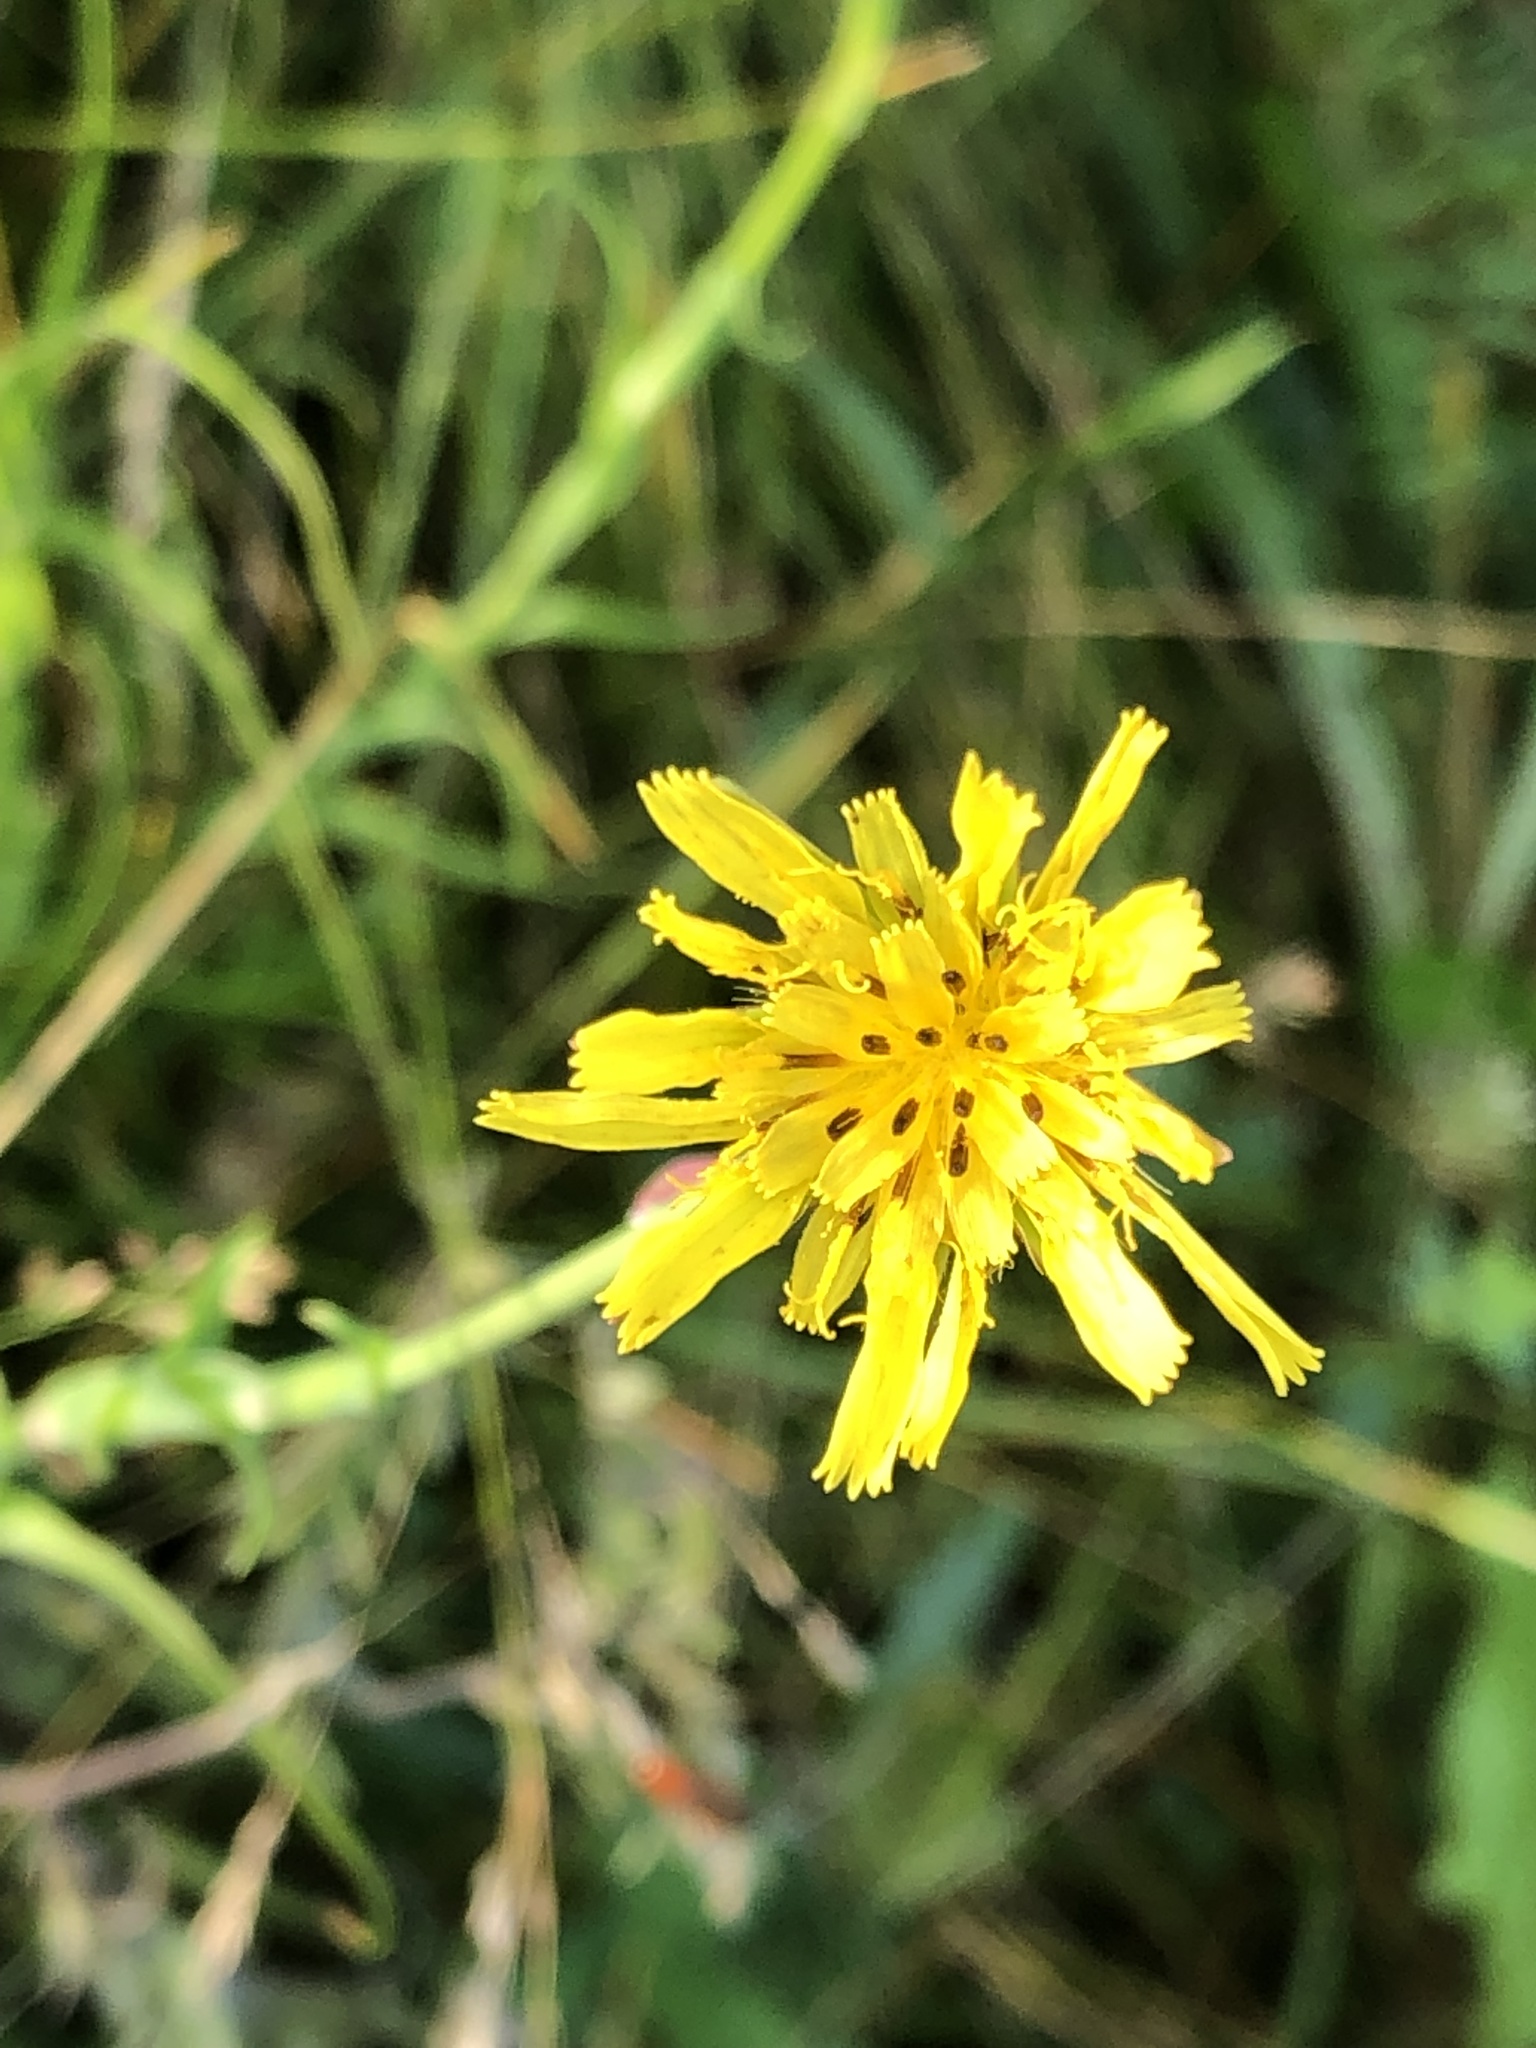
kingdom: Plantae
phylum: Tracheophyta
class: Magnoliopsida
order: Asterales
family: Asteraceae
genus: Tragopogon
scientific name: Tragopogon pratensis
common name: Goat's-beard
